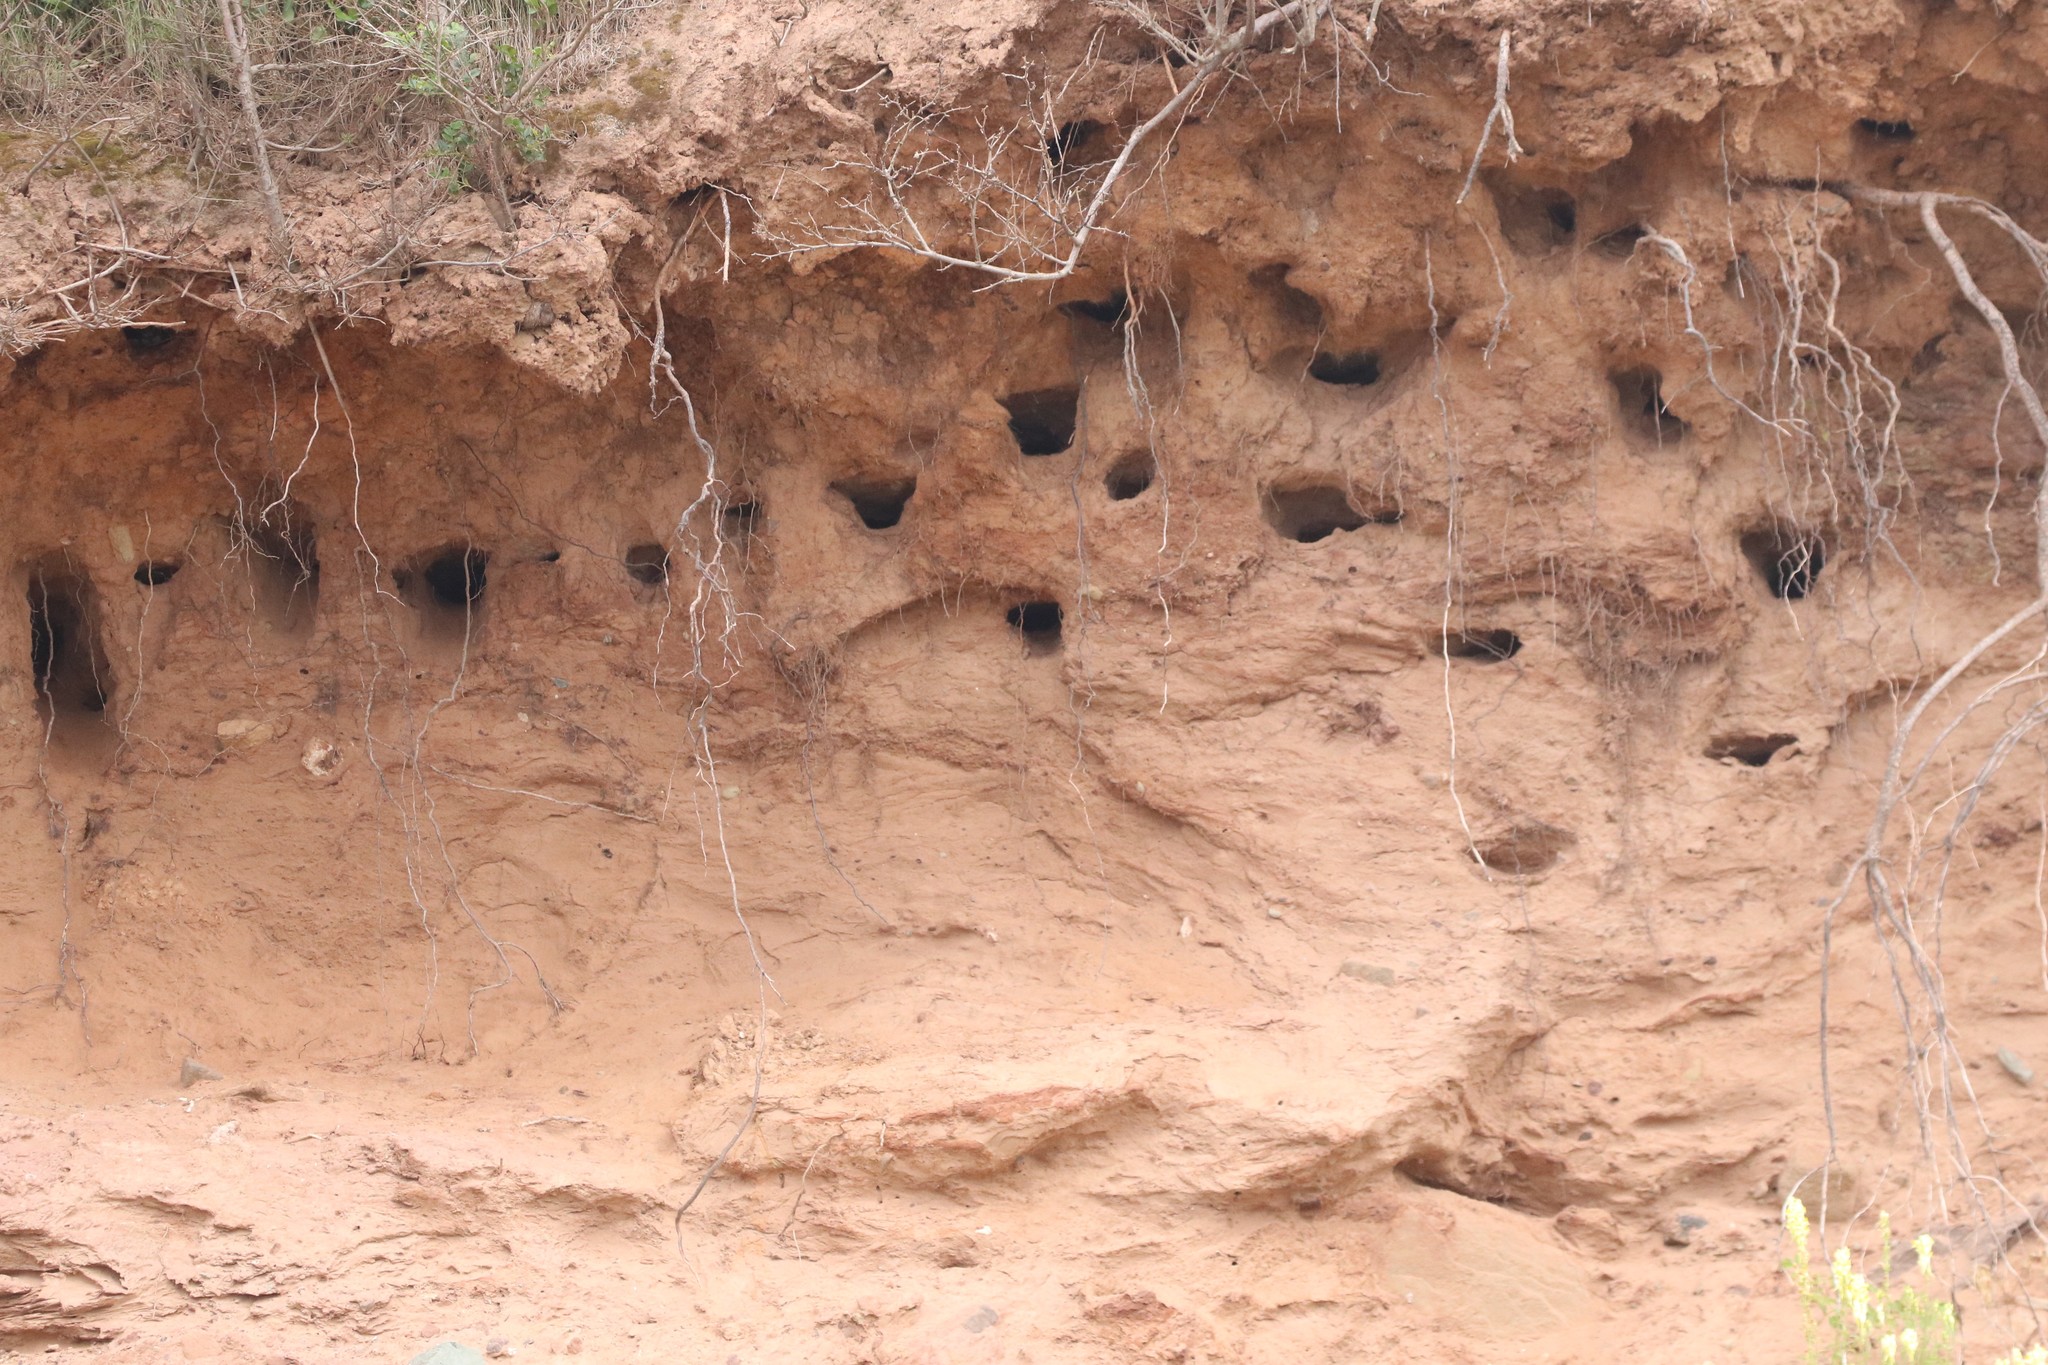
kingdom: Animalia
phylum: Chordata
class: Aves
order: Passeriformes
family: Hirundinidae
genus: Riparia
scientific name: Riparia riparia
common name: Sand martin
